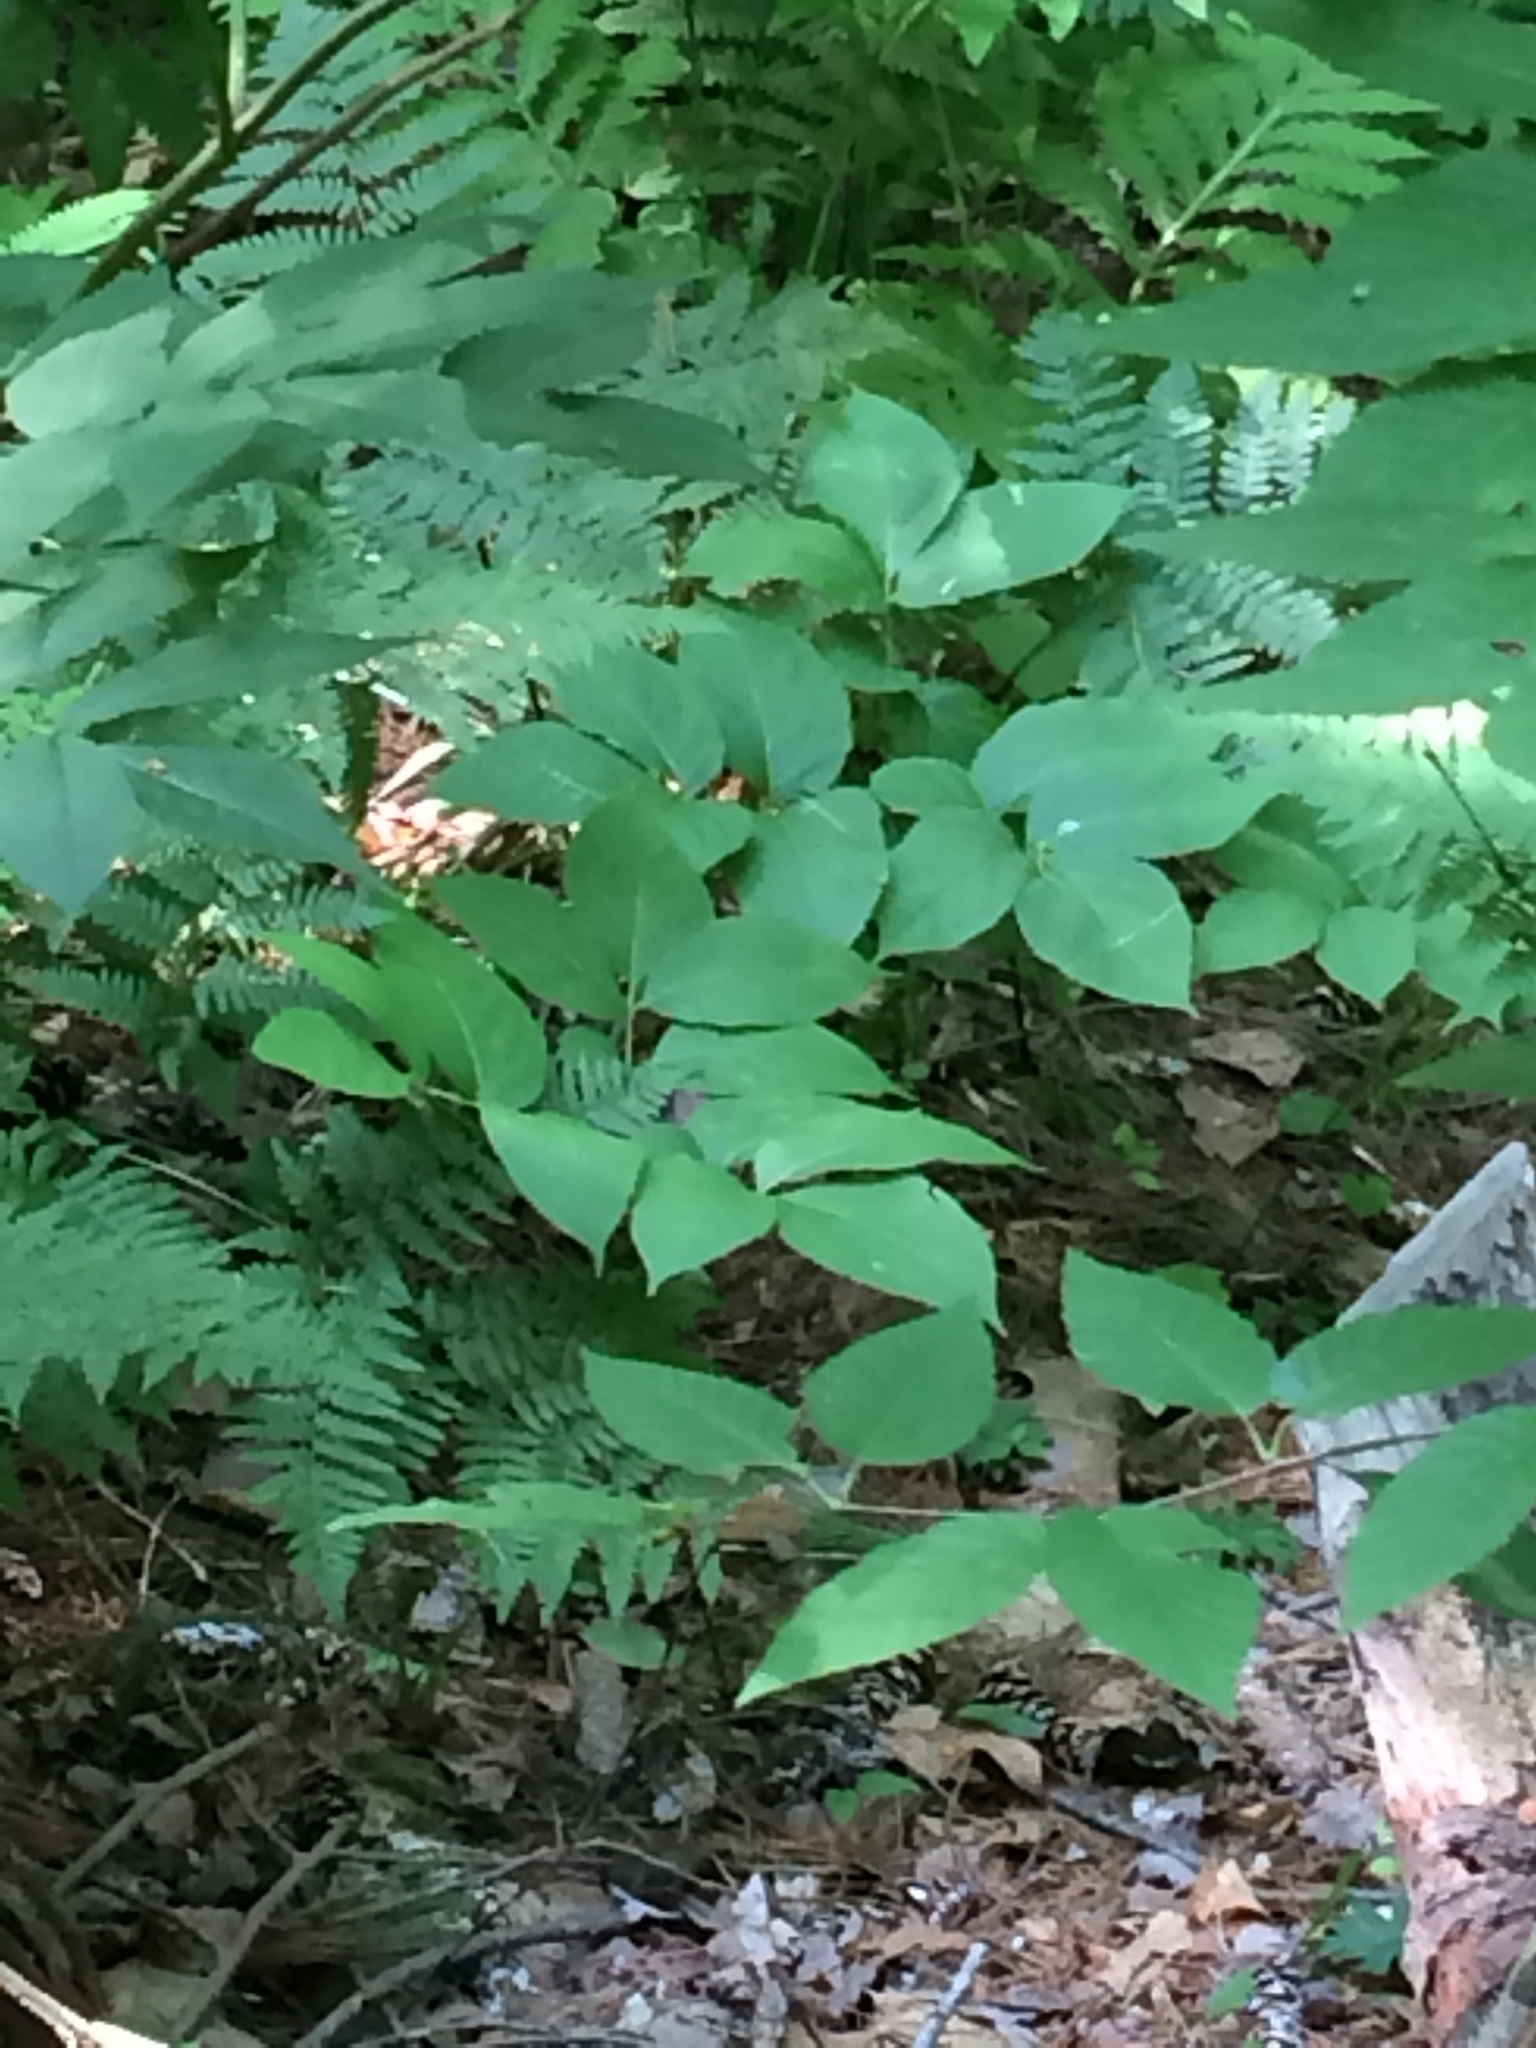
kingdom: Plantae
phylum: Tracheophyta
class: Magnoliopsida
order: Apiales
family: Araliaceae
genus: Aralia
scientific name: Aralia nudicaulis
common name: Wild sarsaparilla
